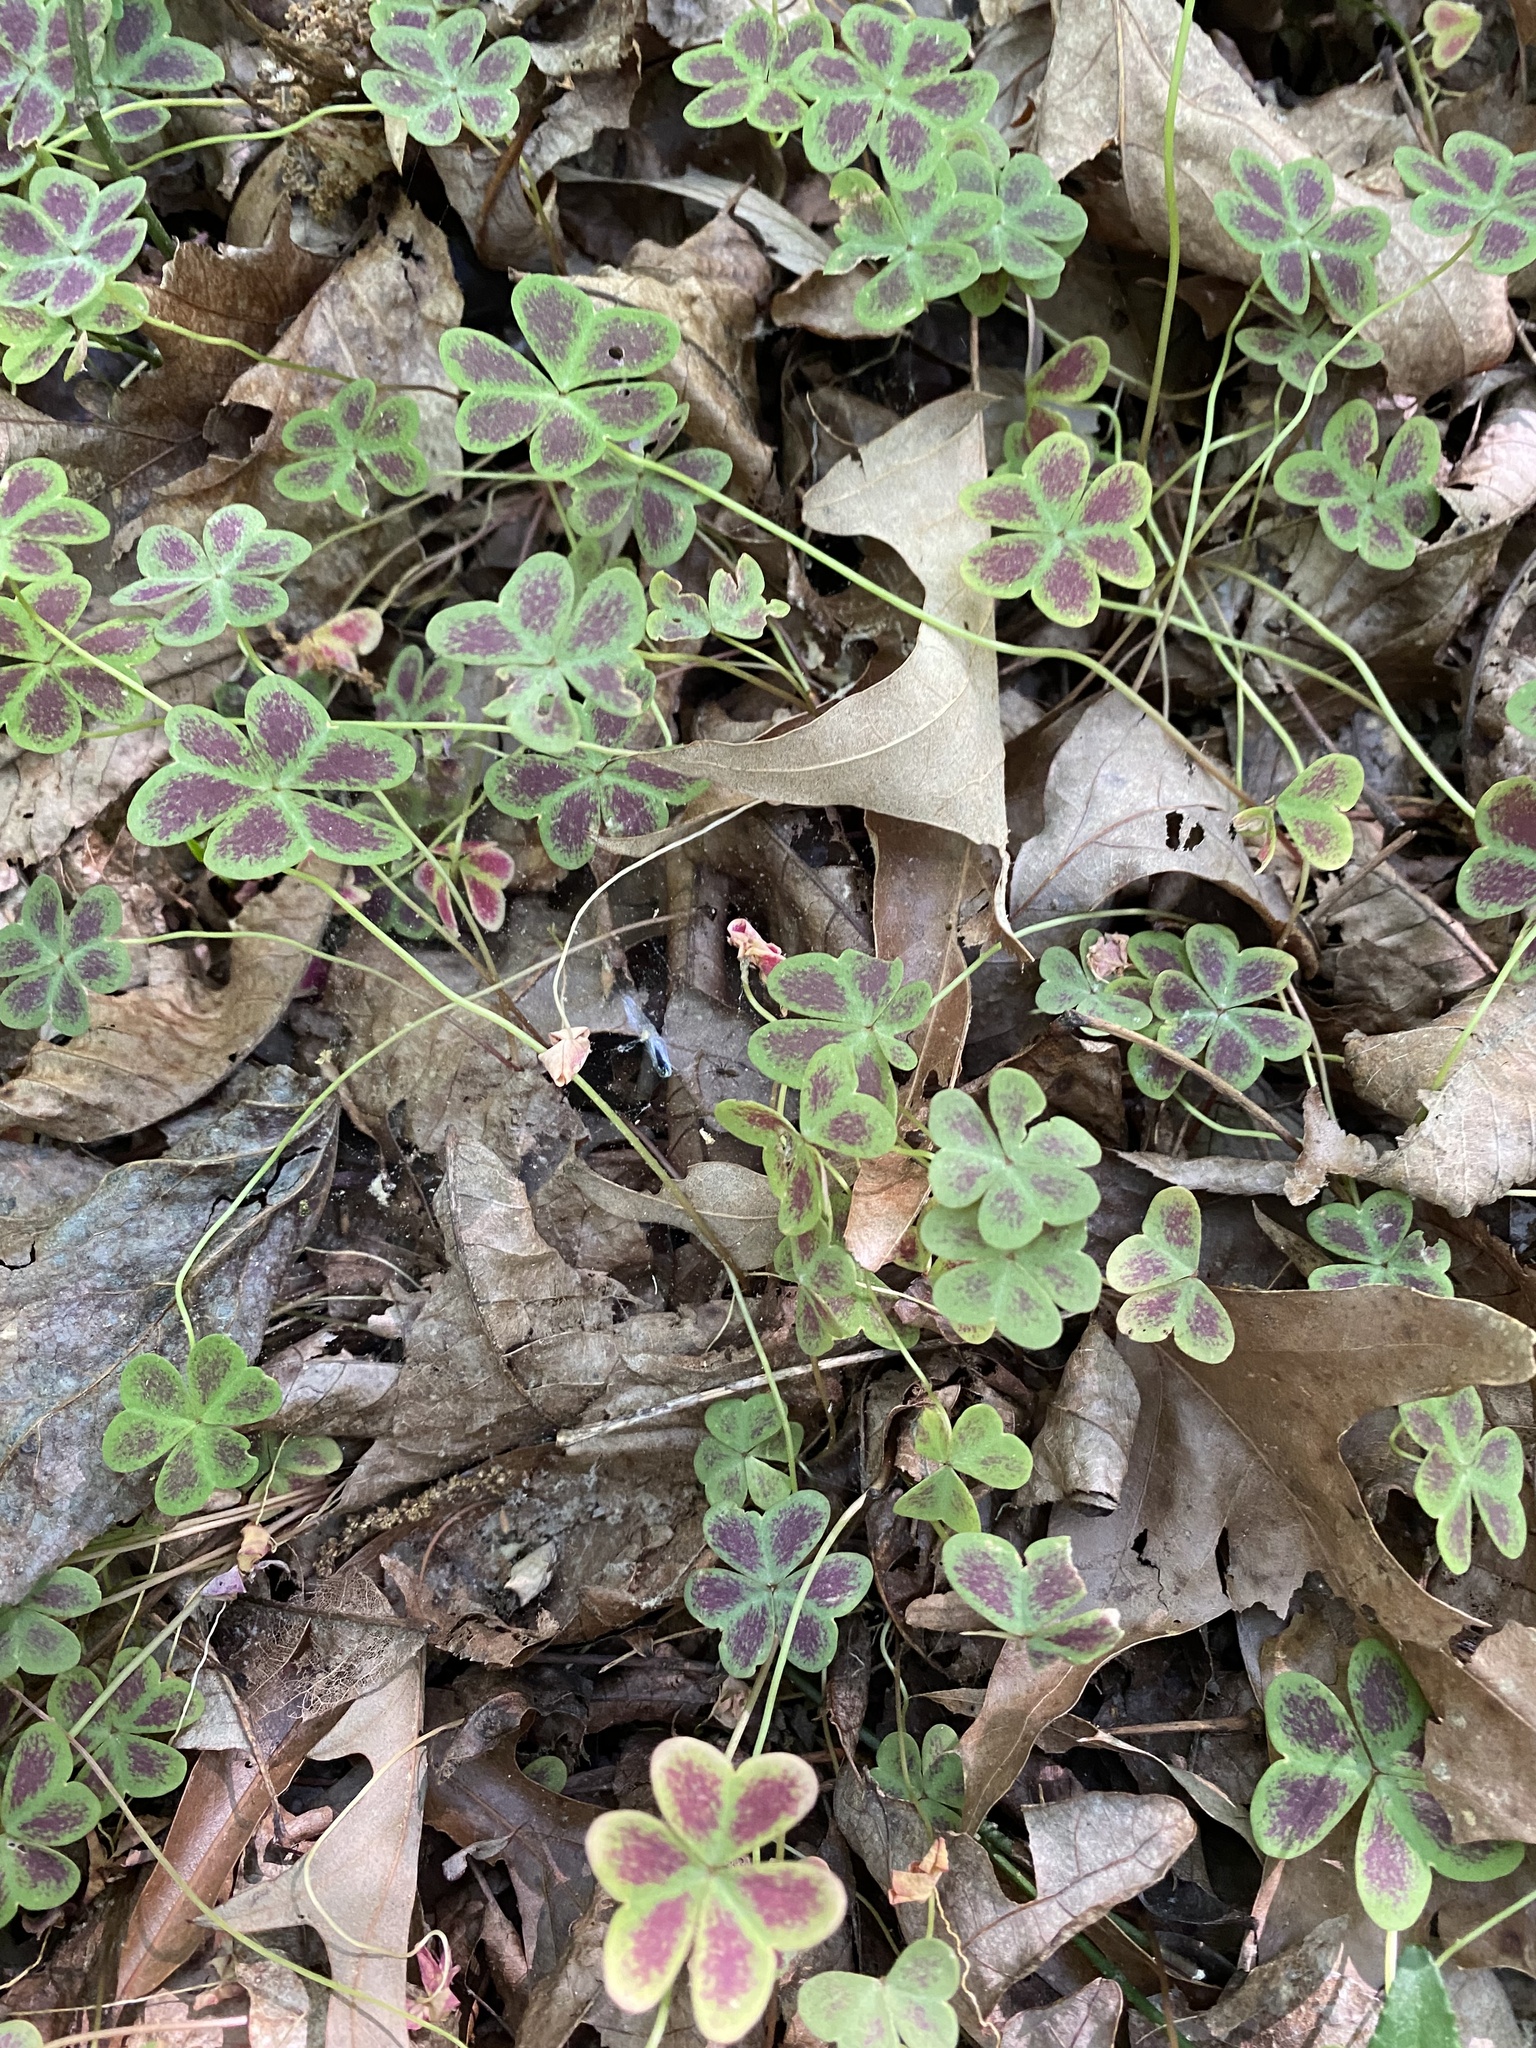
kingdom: Plantae
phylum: Tracheophyta
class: Magnoliopsida
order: Oxalidales
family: Oxalidaceae
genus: Oxalis
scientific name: Oxalis violacea
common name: Violet wood-sorrel
